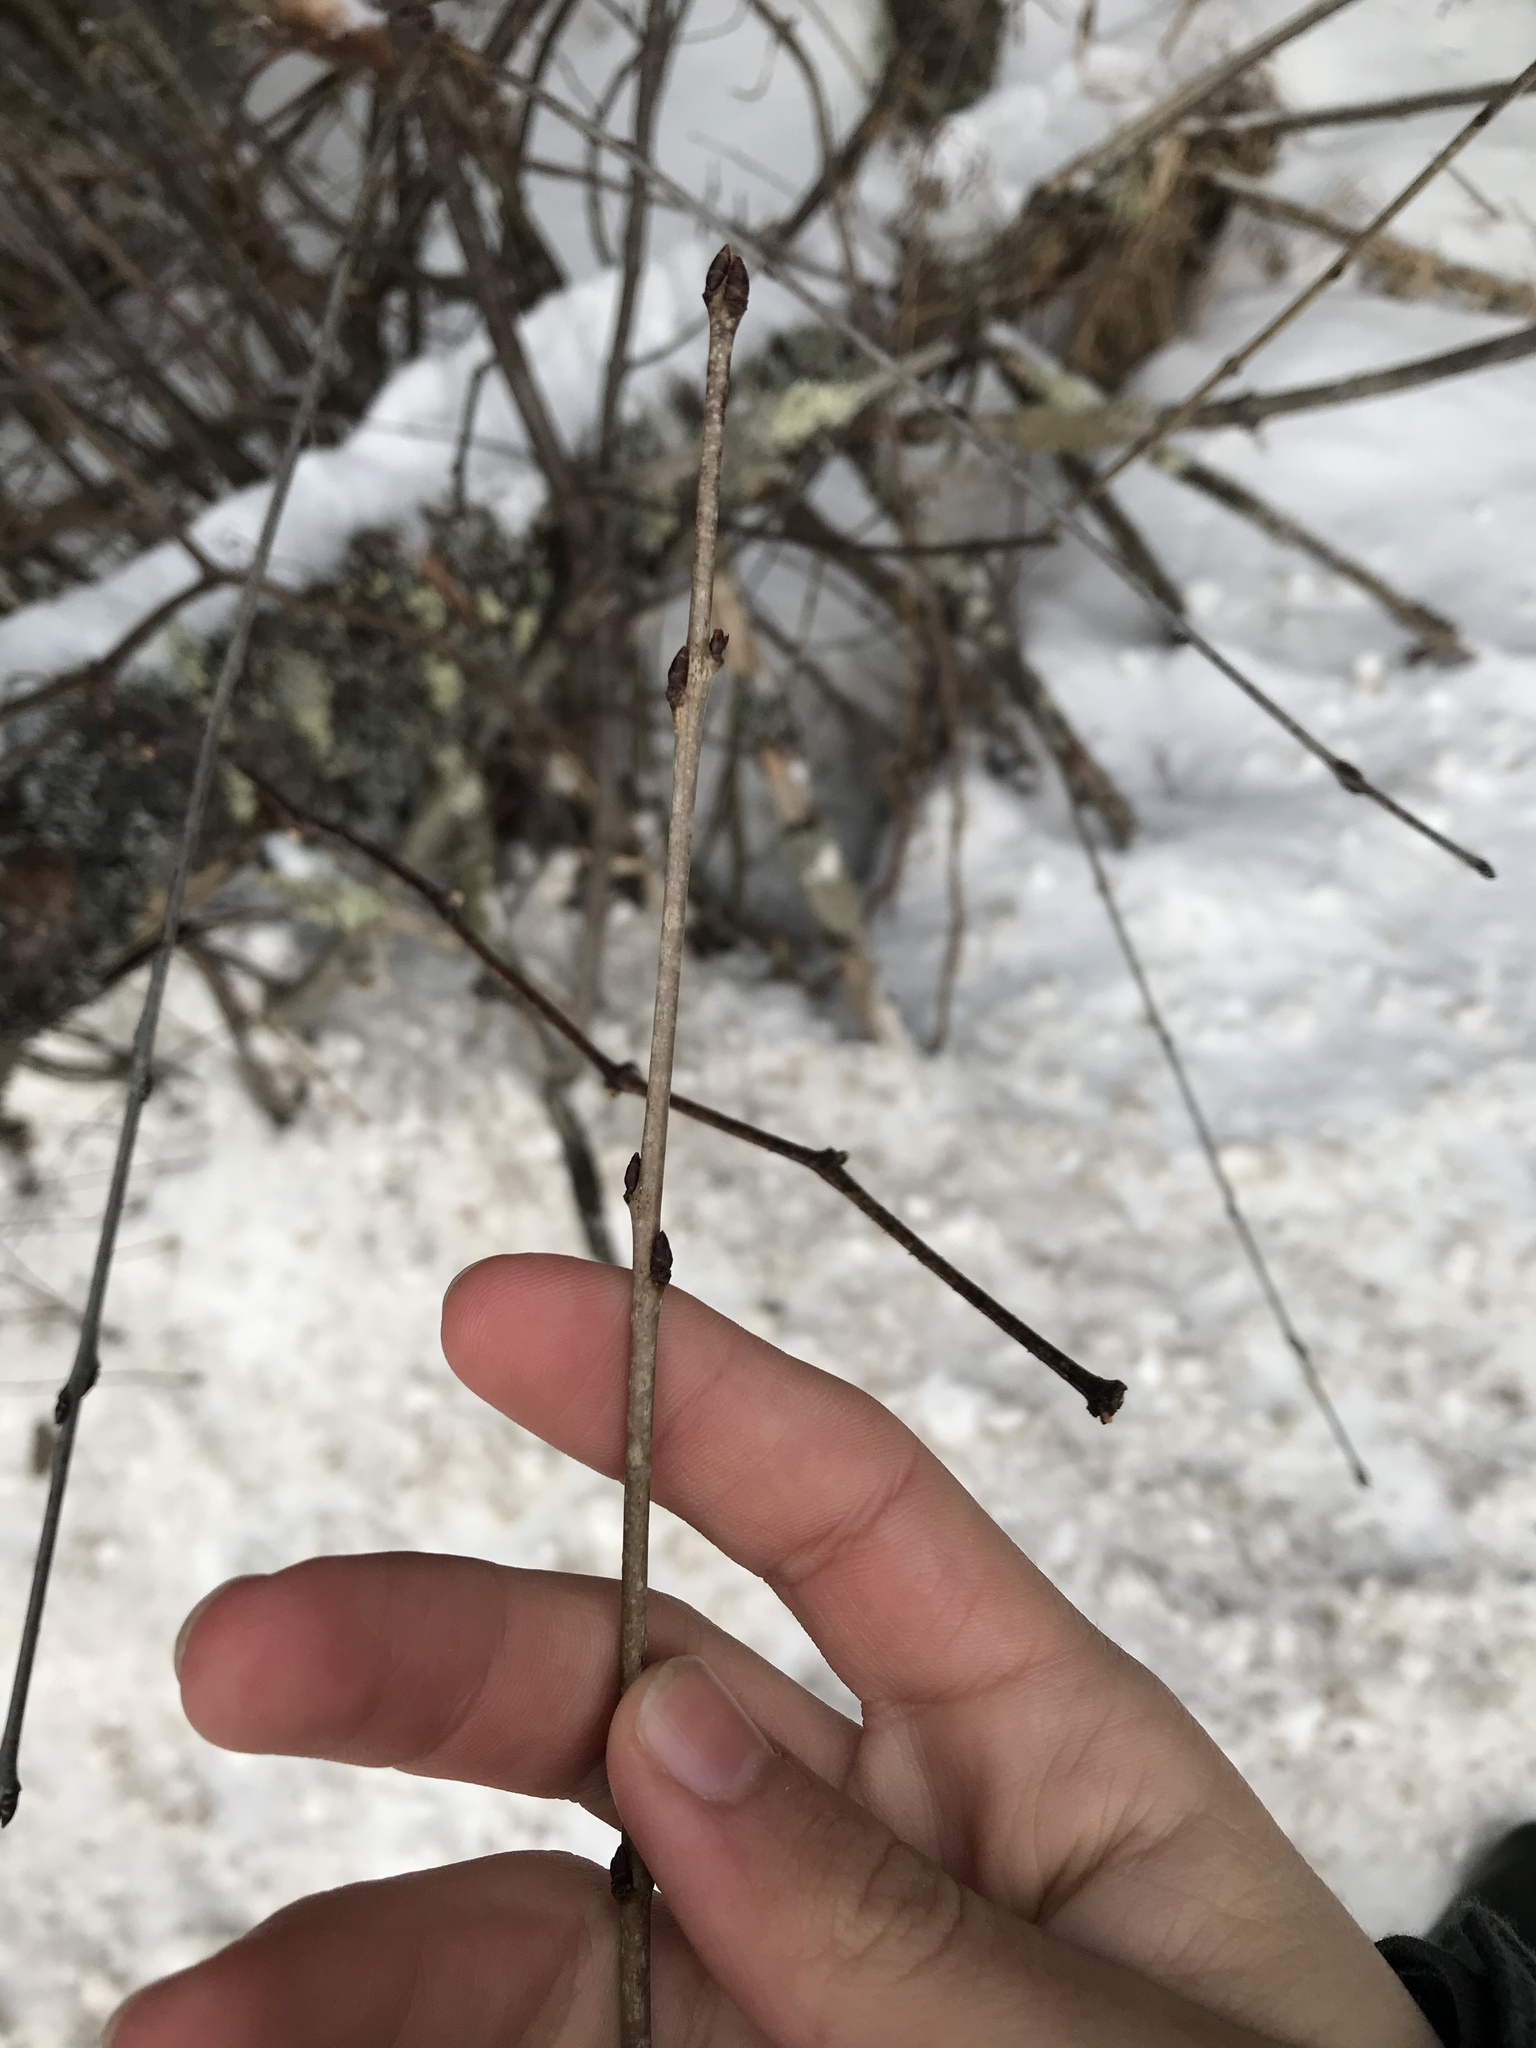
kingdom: Plantae
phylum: Tracheophyta
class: Magnoliopsida
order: Rosales
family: Rhamnaceae
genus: Rhamnus
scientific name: Rhamnus cathartica
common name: Common buckthorn
